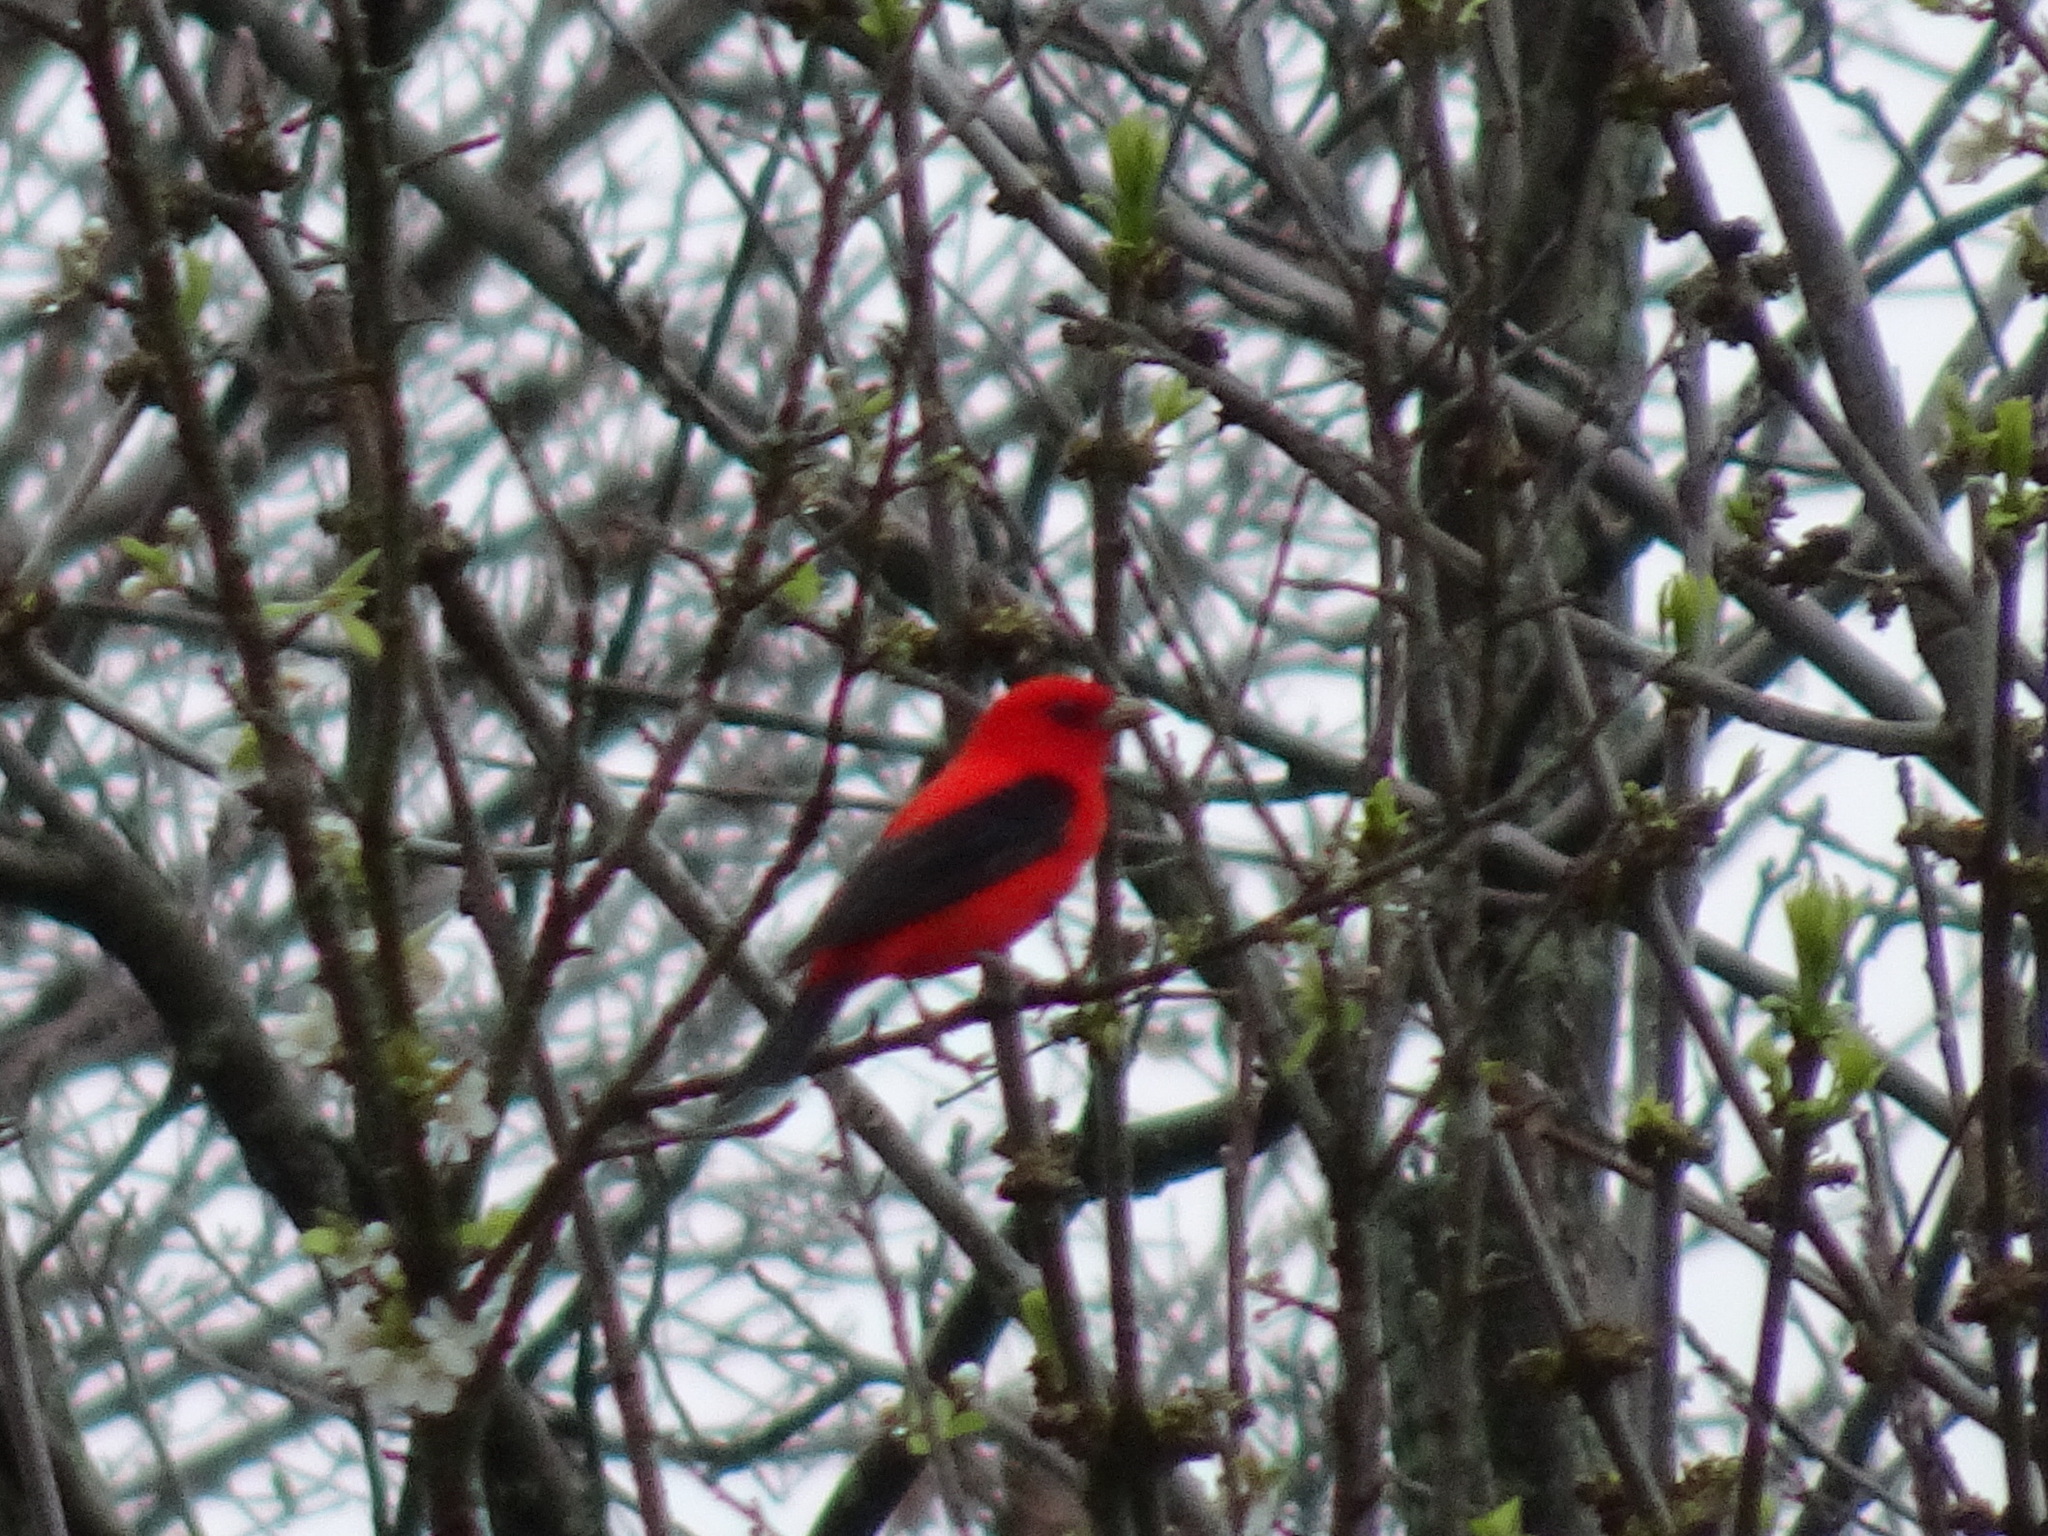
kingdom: Animalia
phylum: Chordata
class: Aves
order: Passeriformes
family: Cardinalidae
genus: Piranga
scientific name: Piranga olivacea
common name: Scarlet tanager
